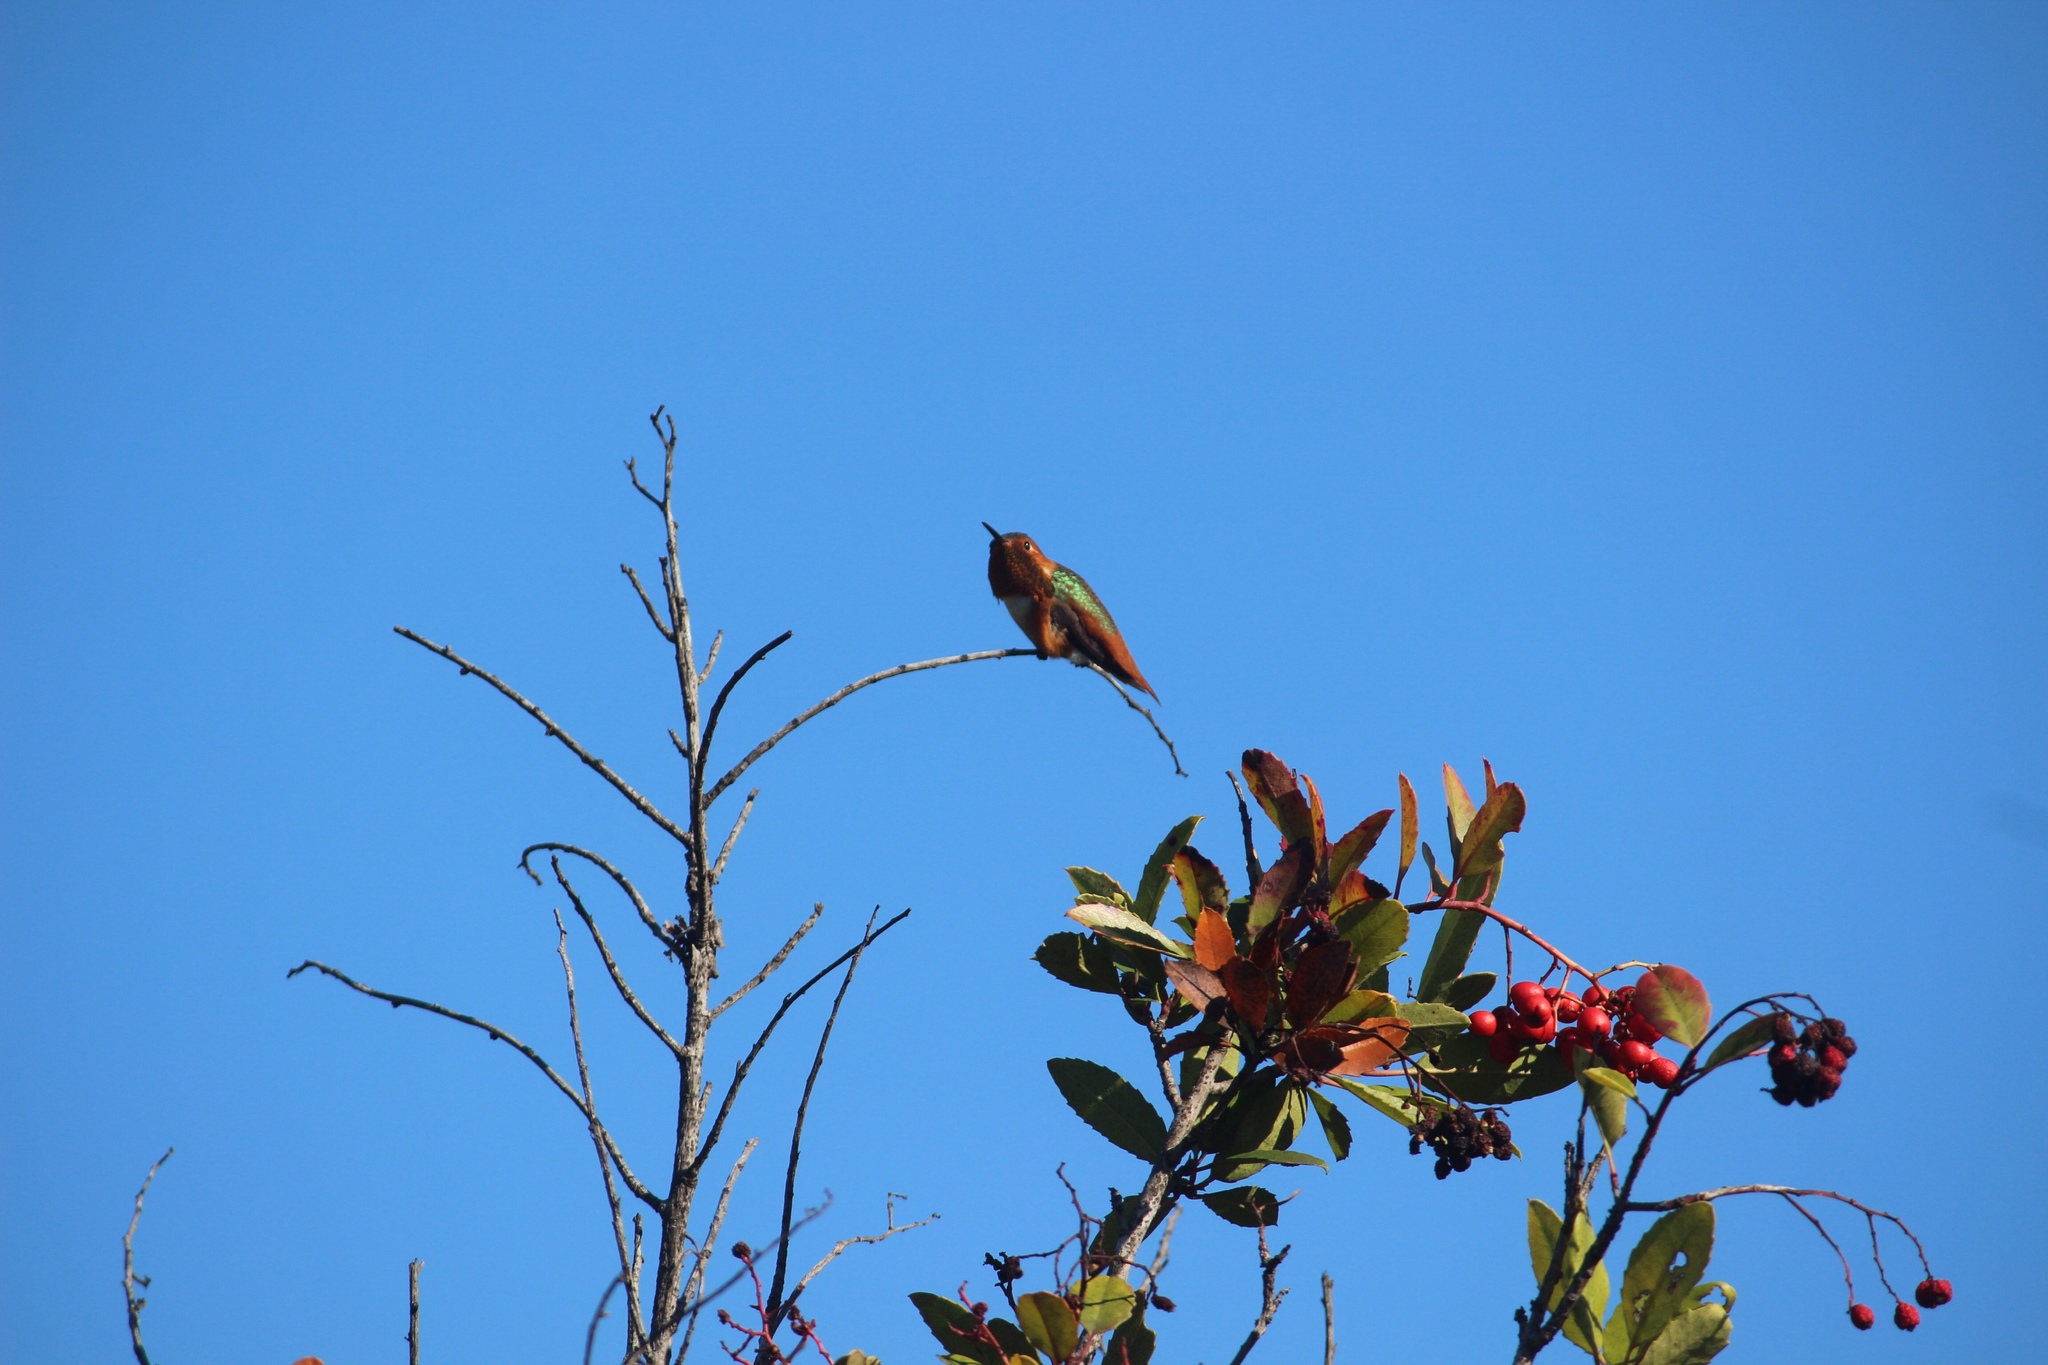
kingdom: Animalia
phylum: Chordata
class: Aves
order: Apodiformes
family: Trochilidae
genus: Selasphorus
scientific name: Selasphorus sasin
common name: Allen's hummingbird
